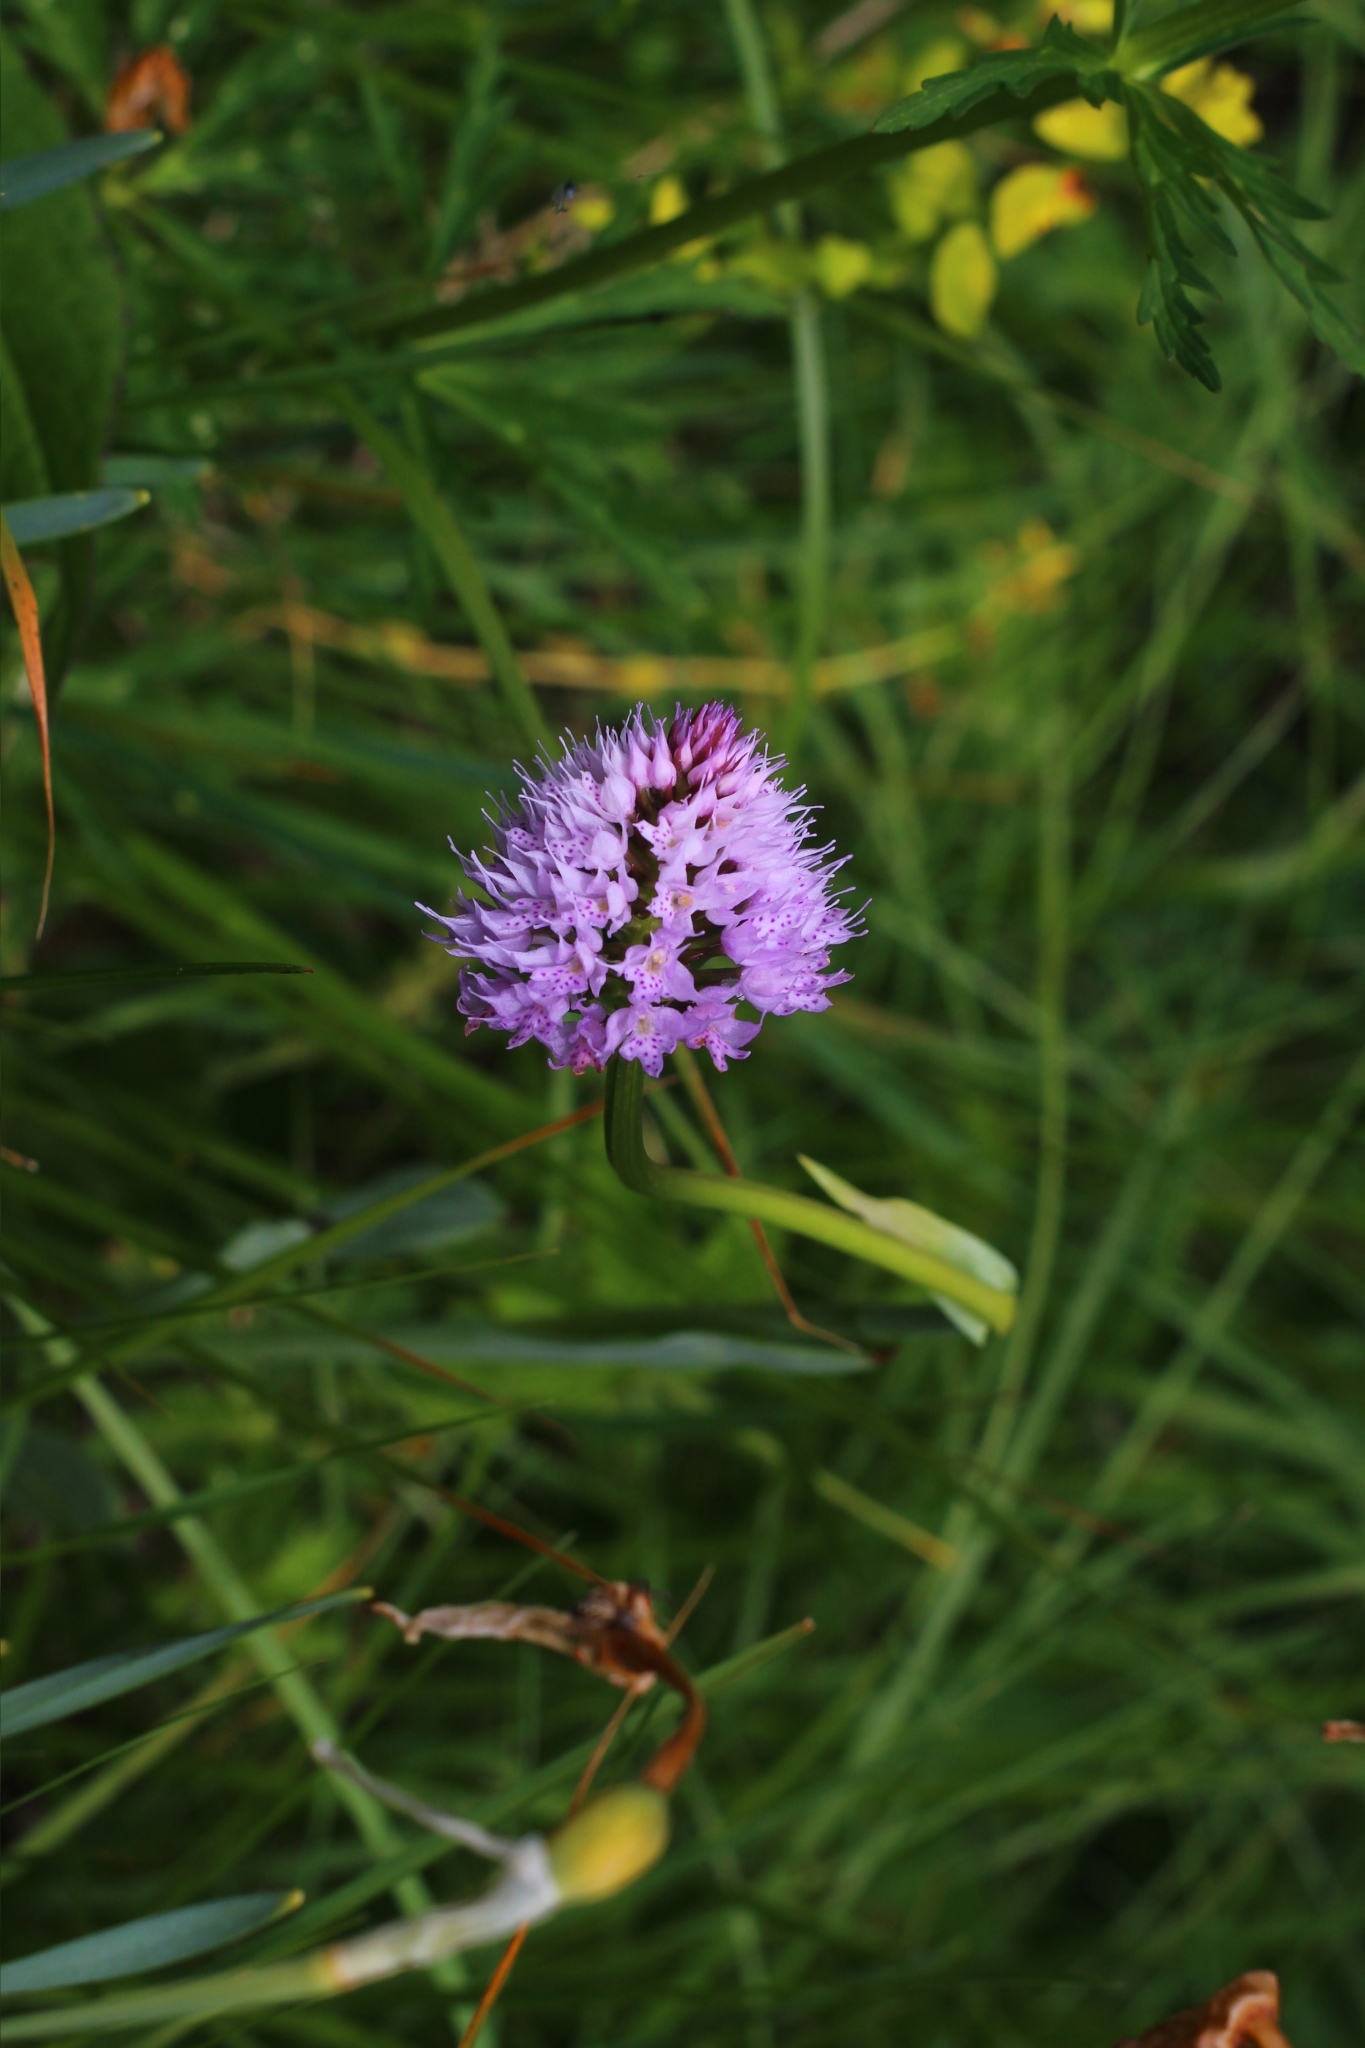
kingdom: Plantae
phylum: Tracheophyta
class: Liliopsida
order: Asparagales
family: Orchidaceae
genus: Traunsteinera
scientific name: Traunsteinera globosa
